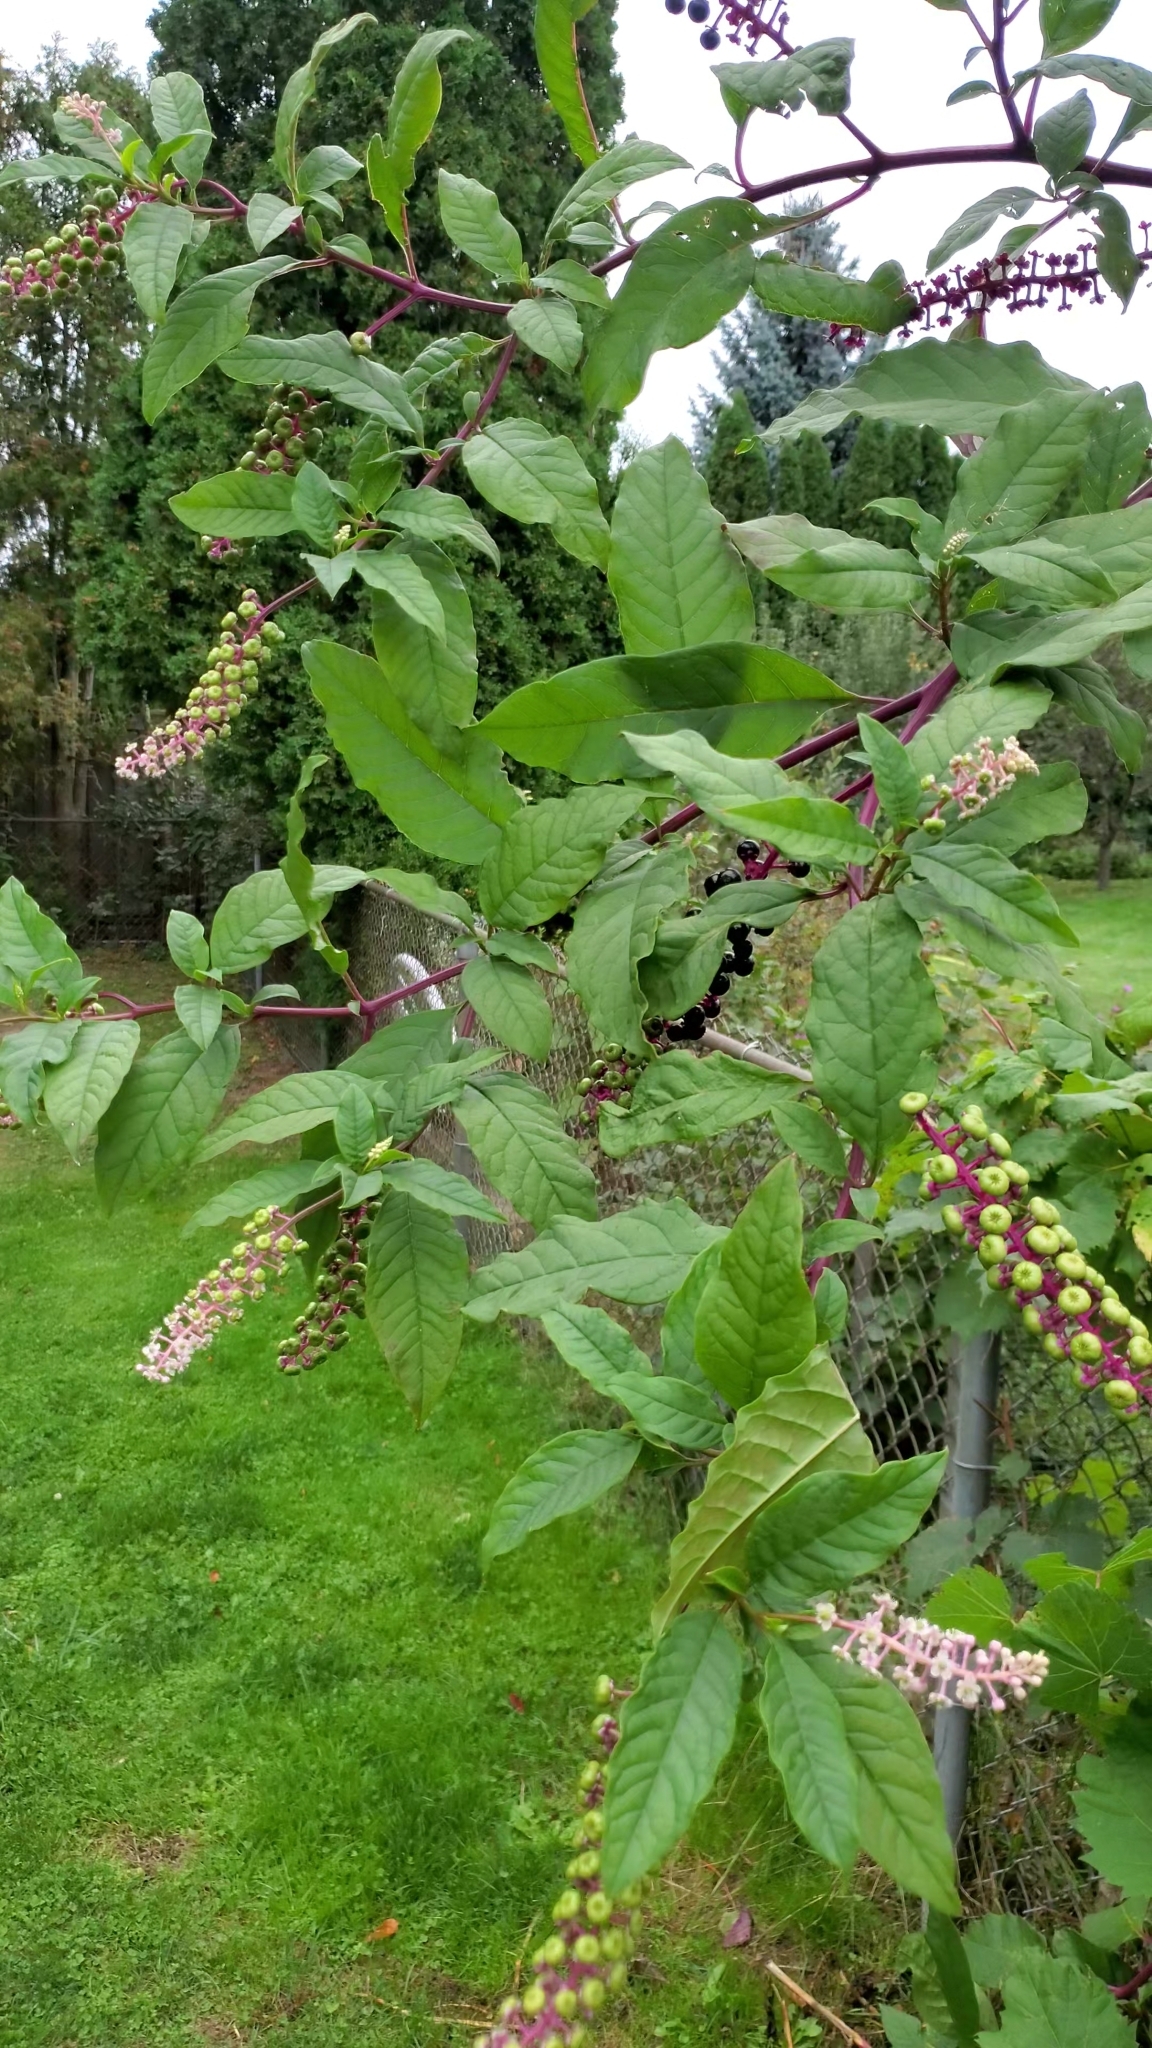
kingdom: Plantae
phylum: Tracheophyta
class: Magnoliopsida
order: Caryophyllales
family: Phytolaccaceae
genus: Phytolacca
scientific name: Phytolacca americana
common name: American pokeweed
